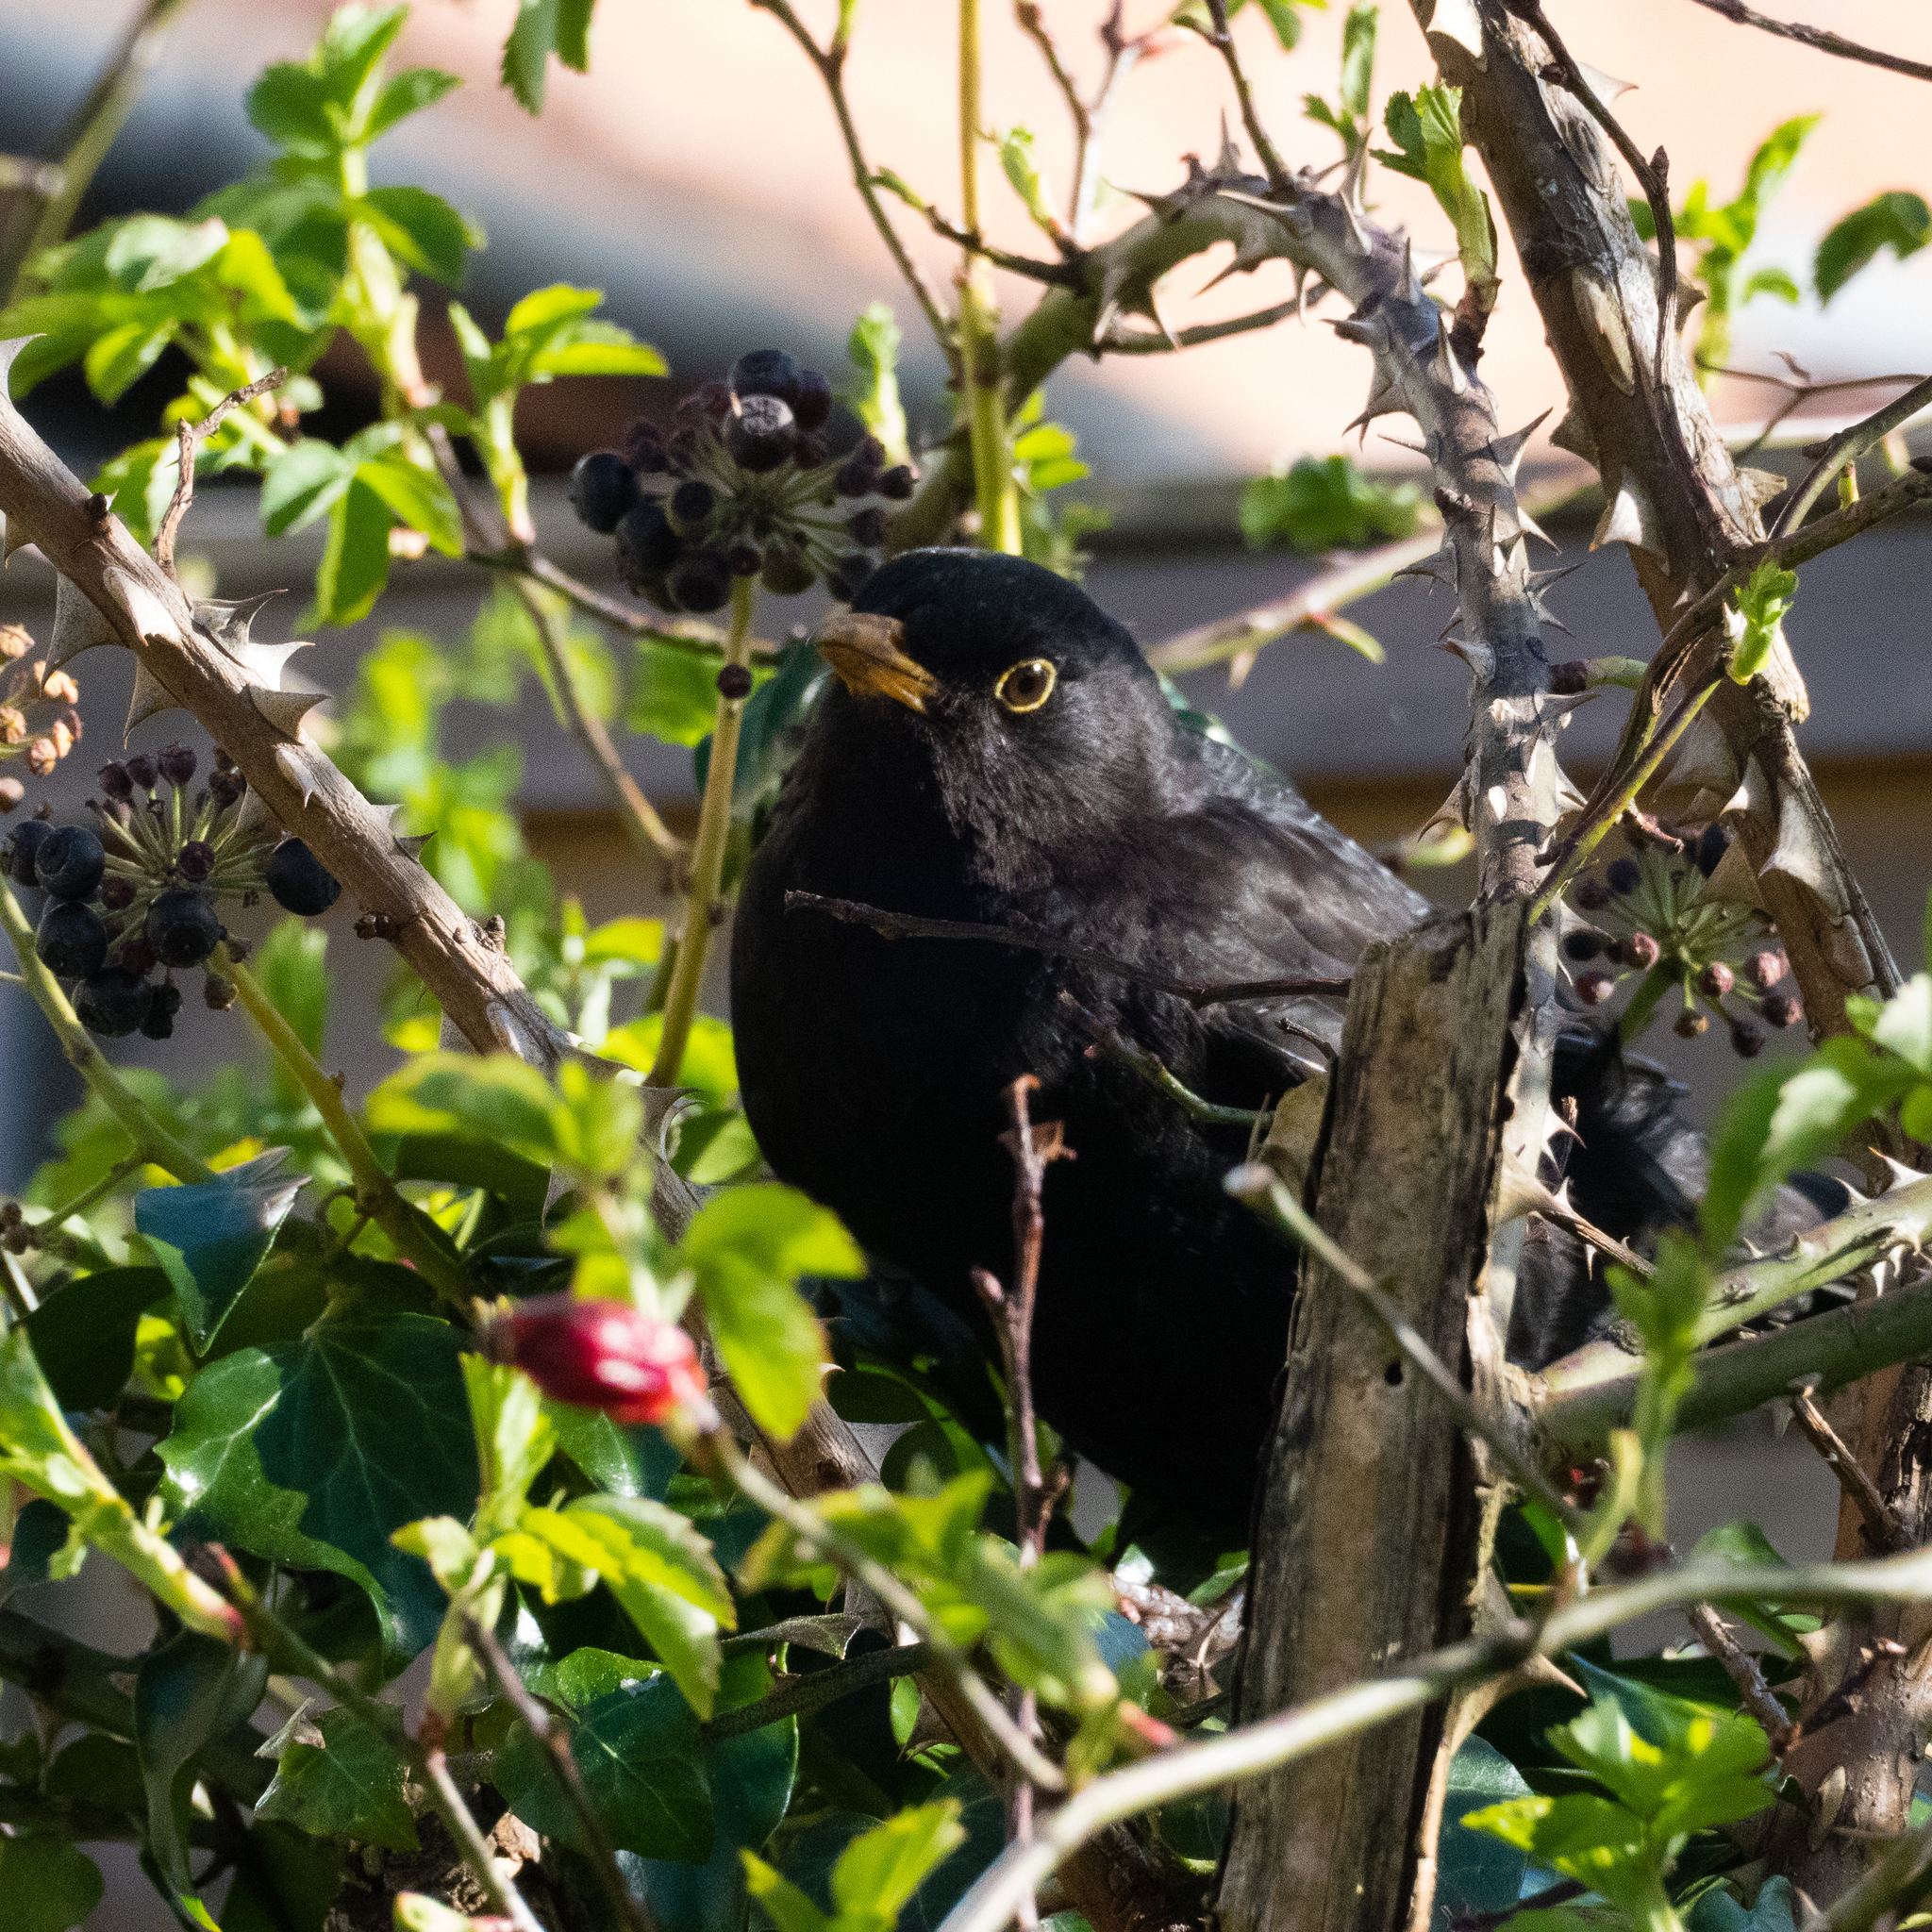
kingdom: Animalia
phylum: Chordata
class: Aves
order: Passeriformes
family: Turdidae
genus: Turdus
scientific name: Turdus merula
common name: Common blackbird
